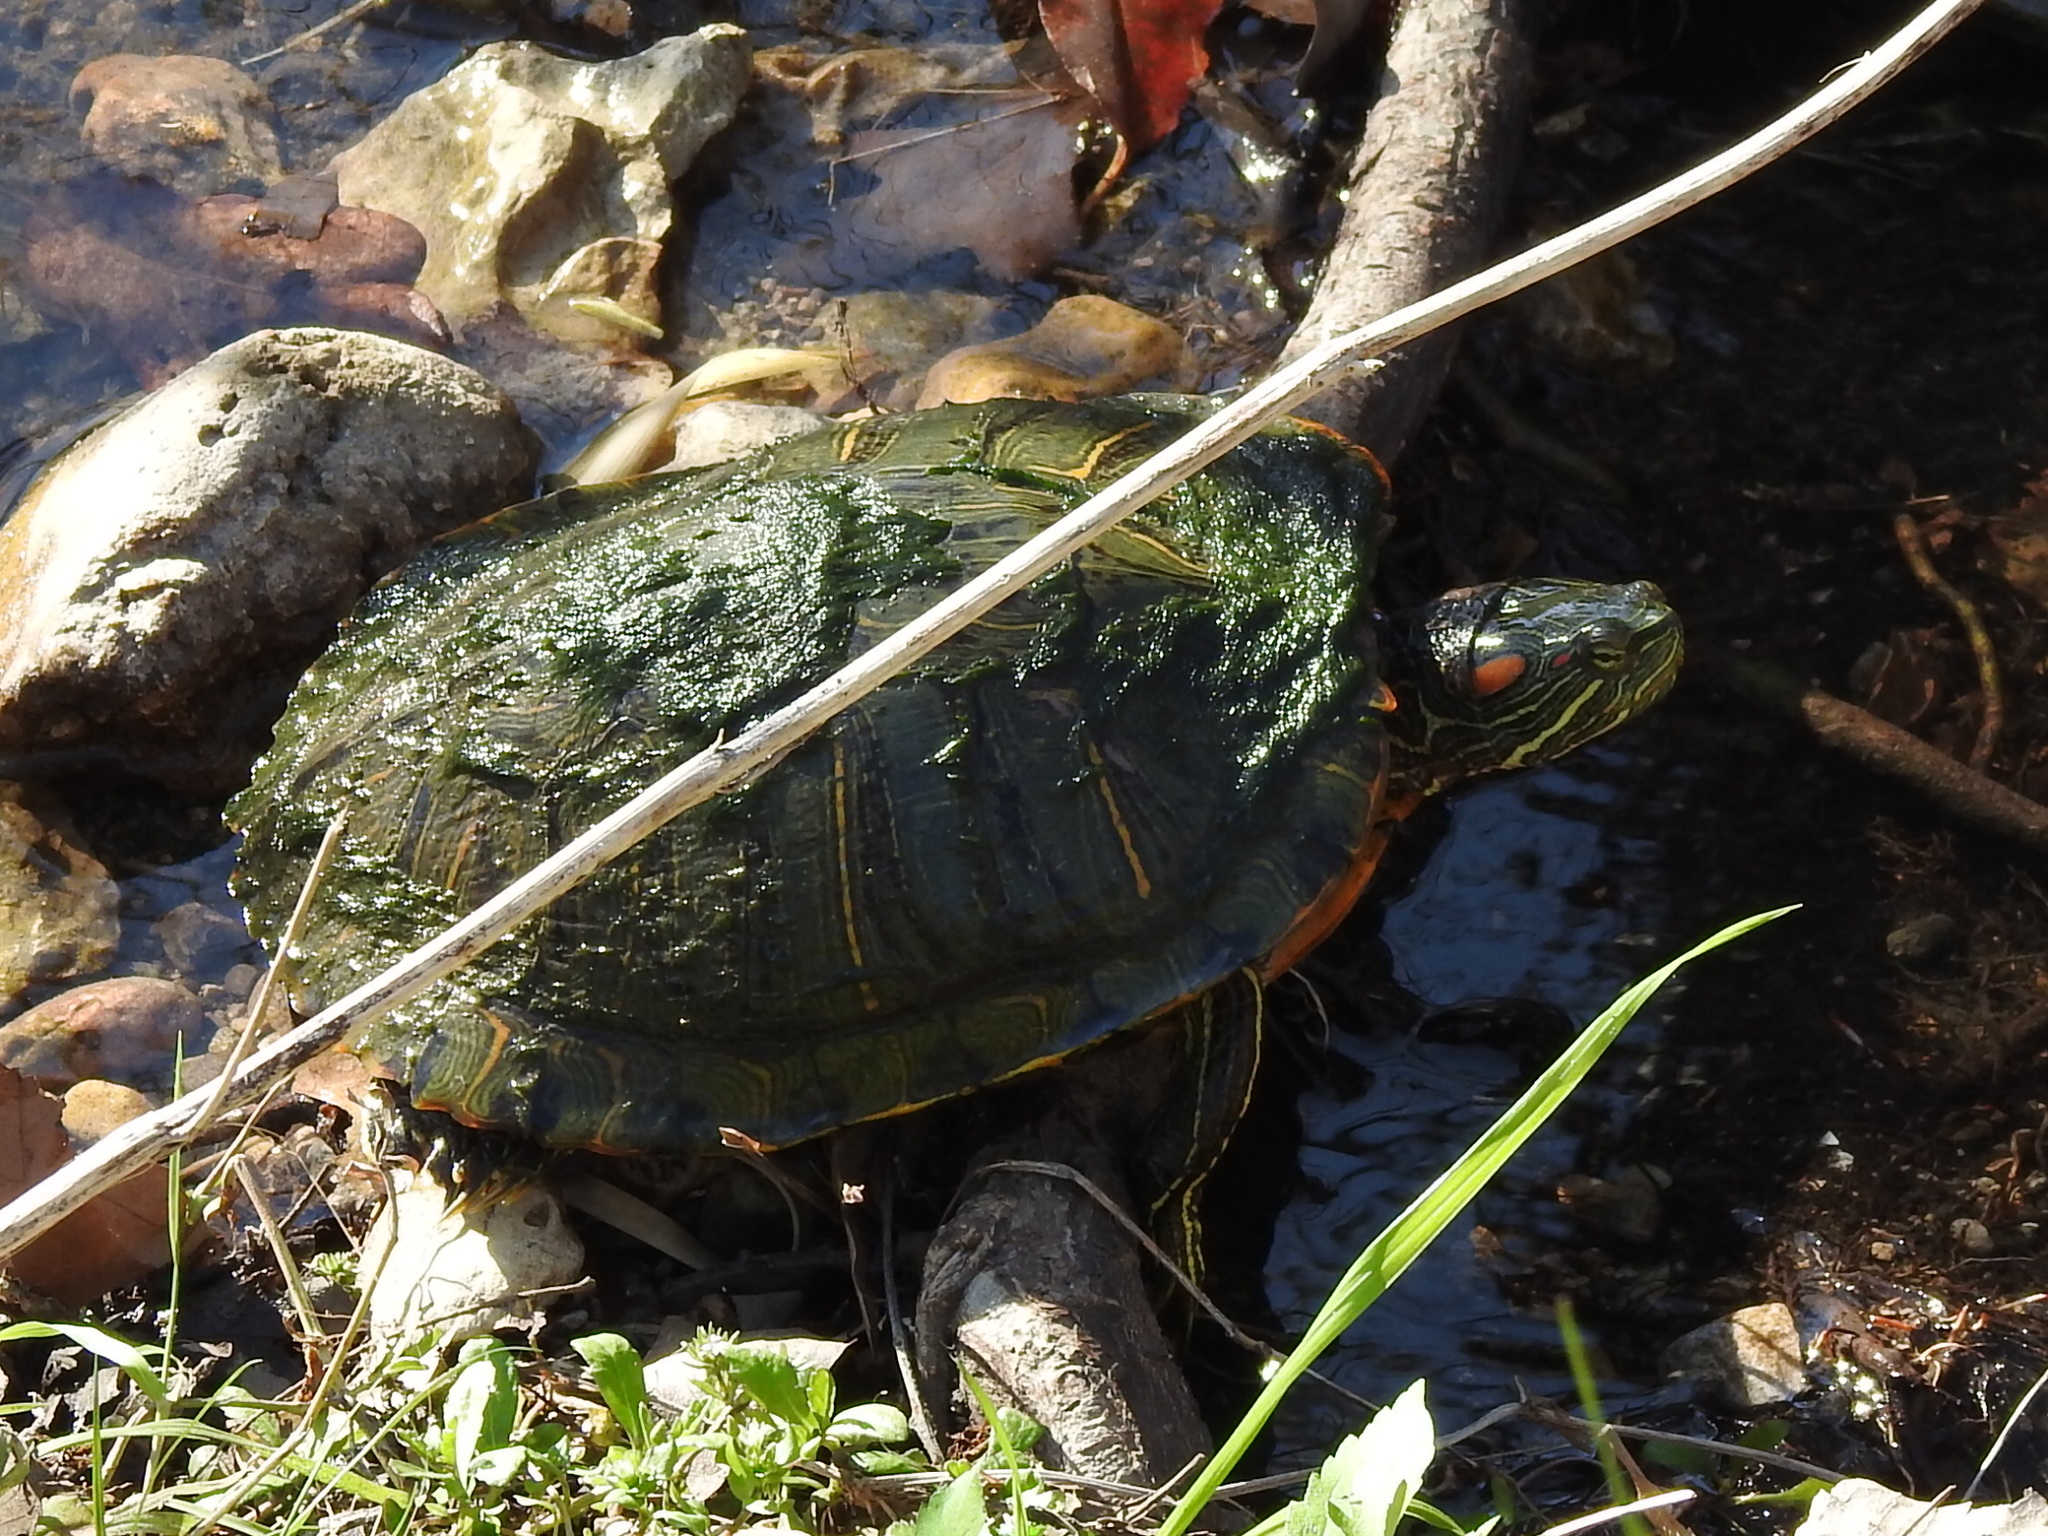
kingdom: Animalia
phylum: Chordata
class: Testudines
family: Emydidae
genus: Trachemys
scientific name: Trachemys scripta
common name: Slider
